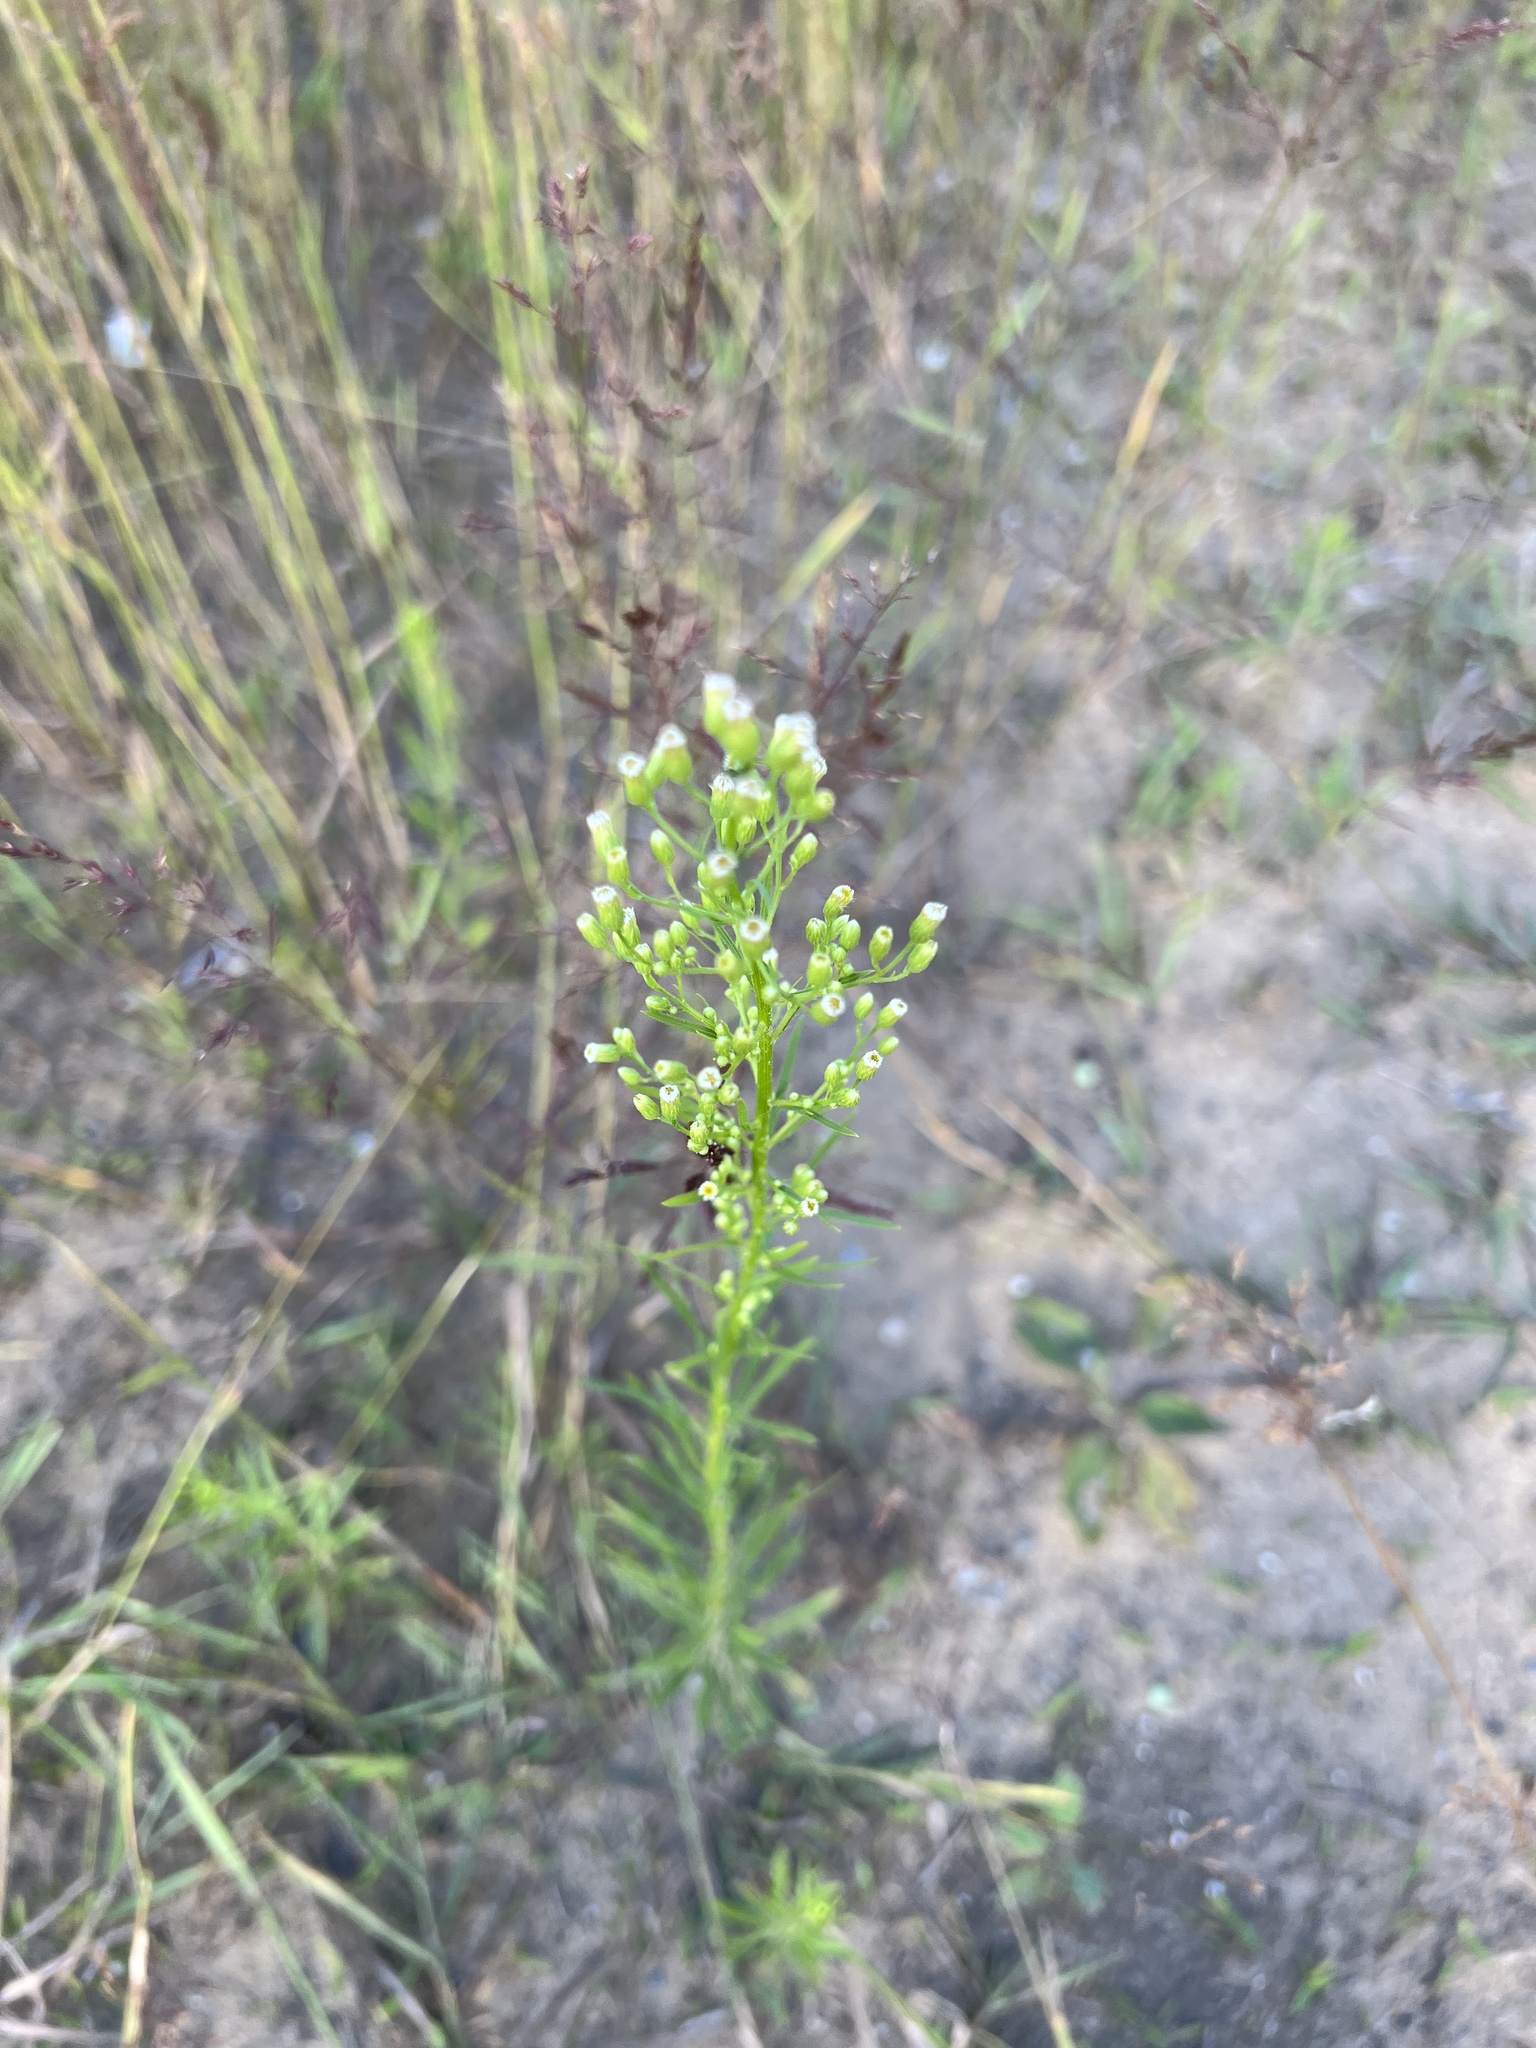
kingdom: Plantae
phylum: Tracheophyta
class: Magnoliopsida
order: Asterales
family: Asteraceae
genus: Erigeron
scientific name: Erigeron canadensis
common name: Canadian fleabane
